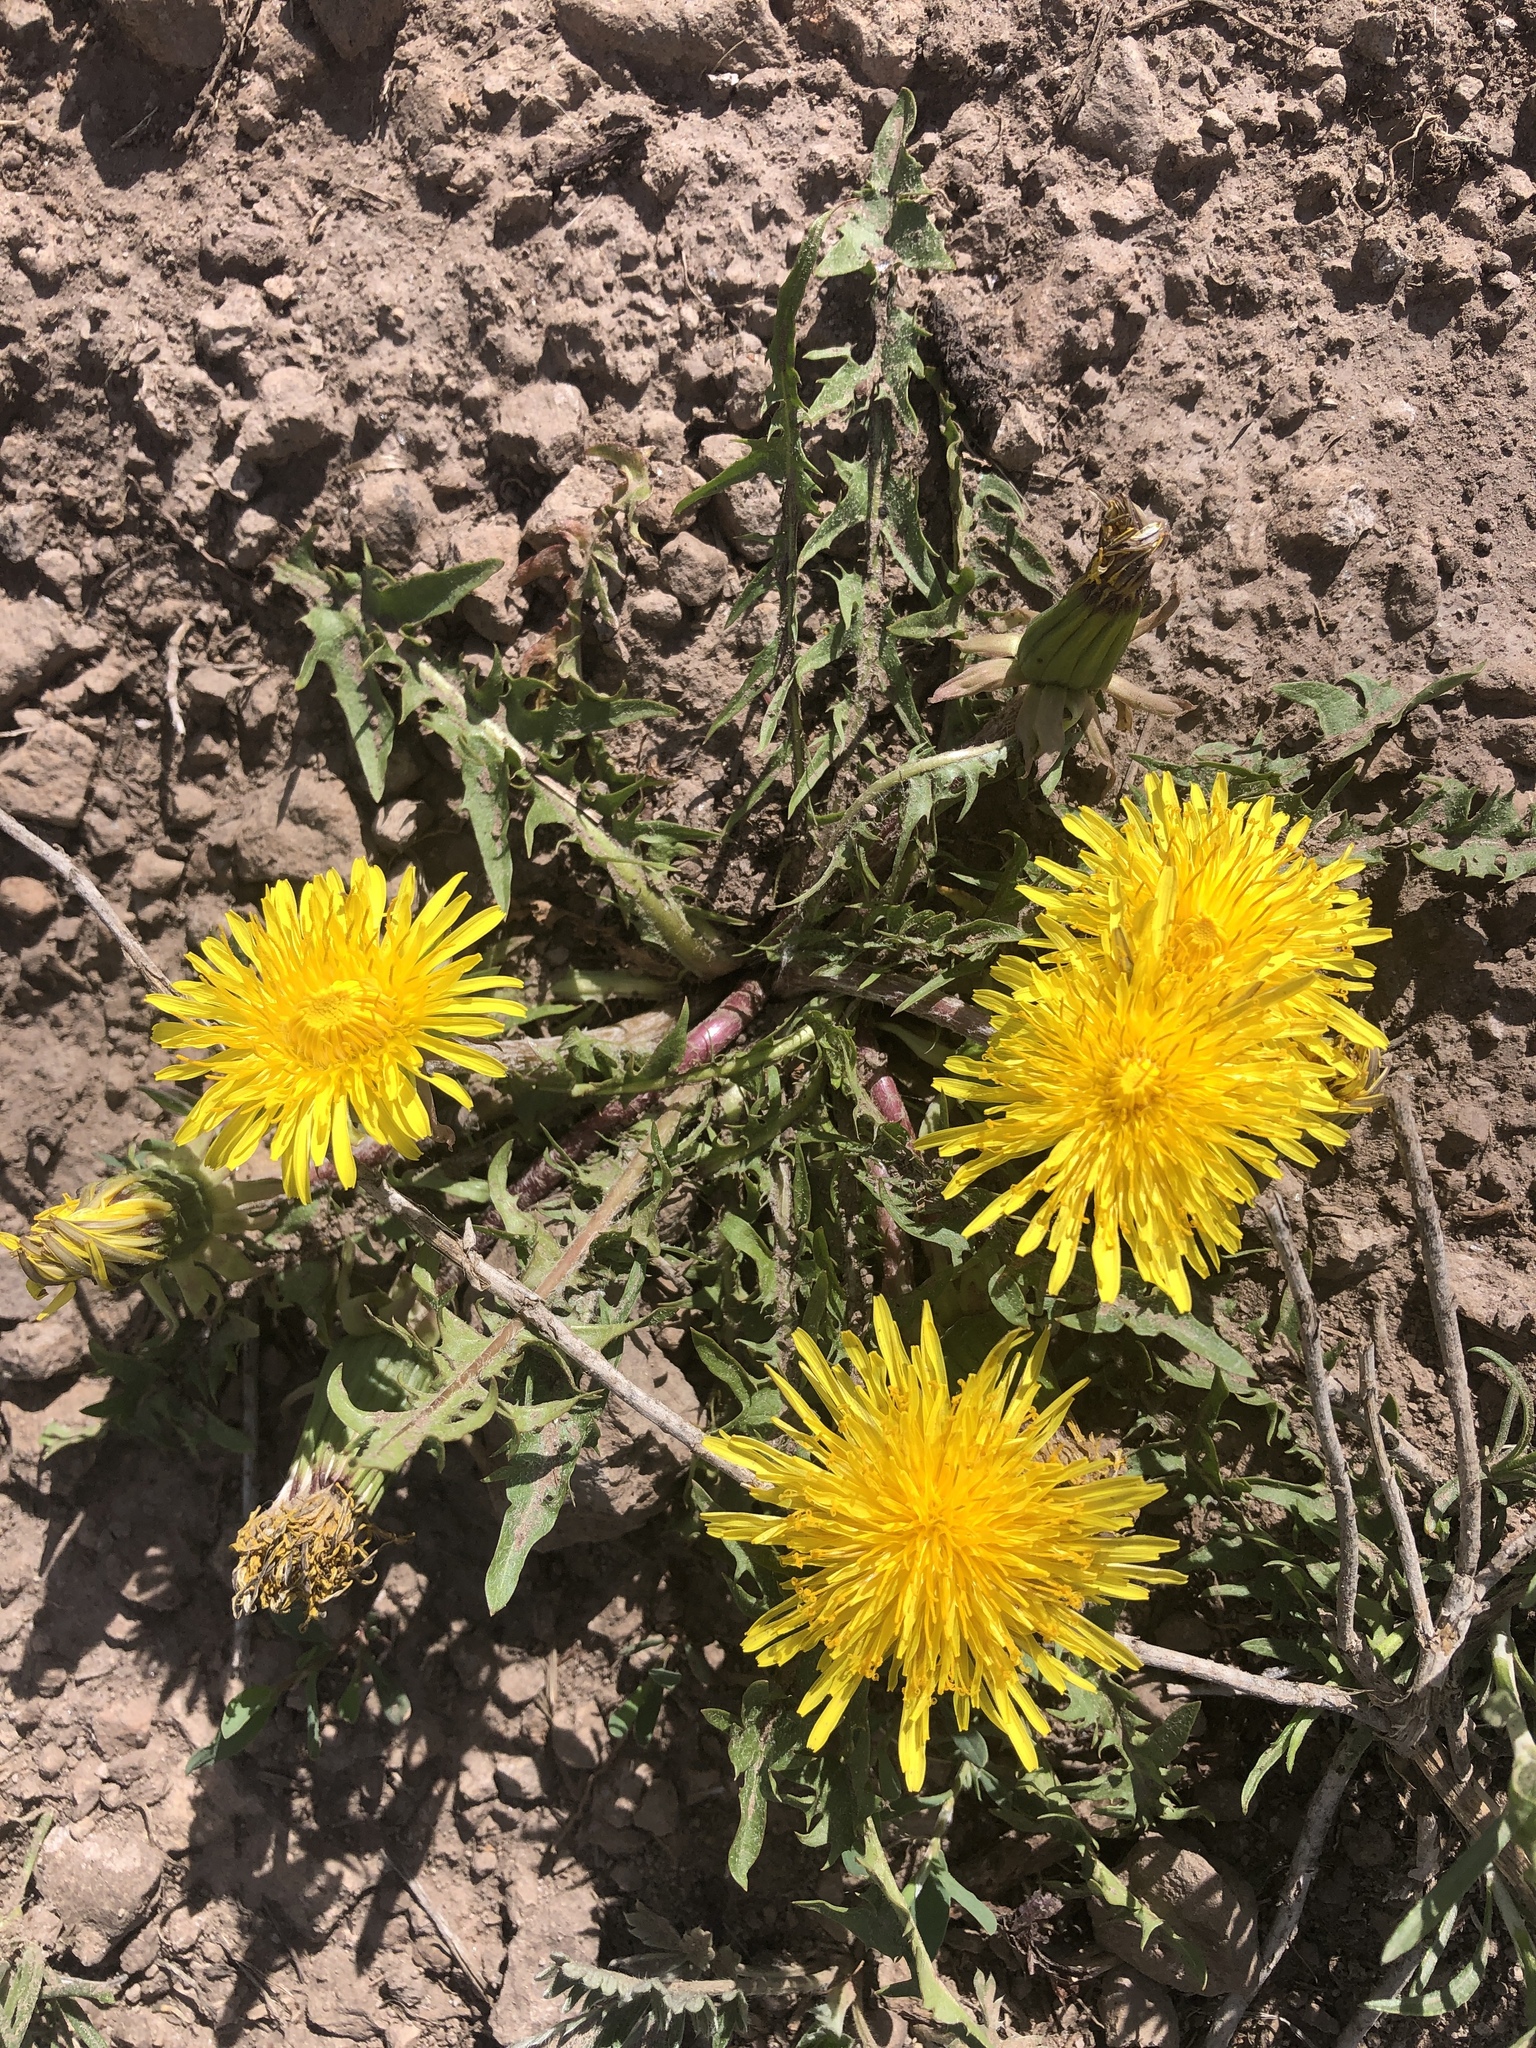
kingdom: Plantae
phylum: Tracheophyta
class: Magnoliopsida
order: Asterales
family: Asteraceae
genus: Taraxacum
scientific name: Taraxacum officinale
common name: Common dandelion
